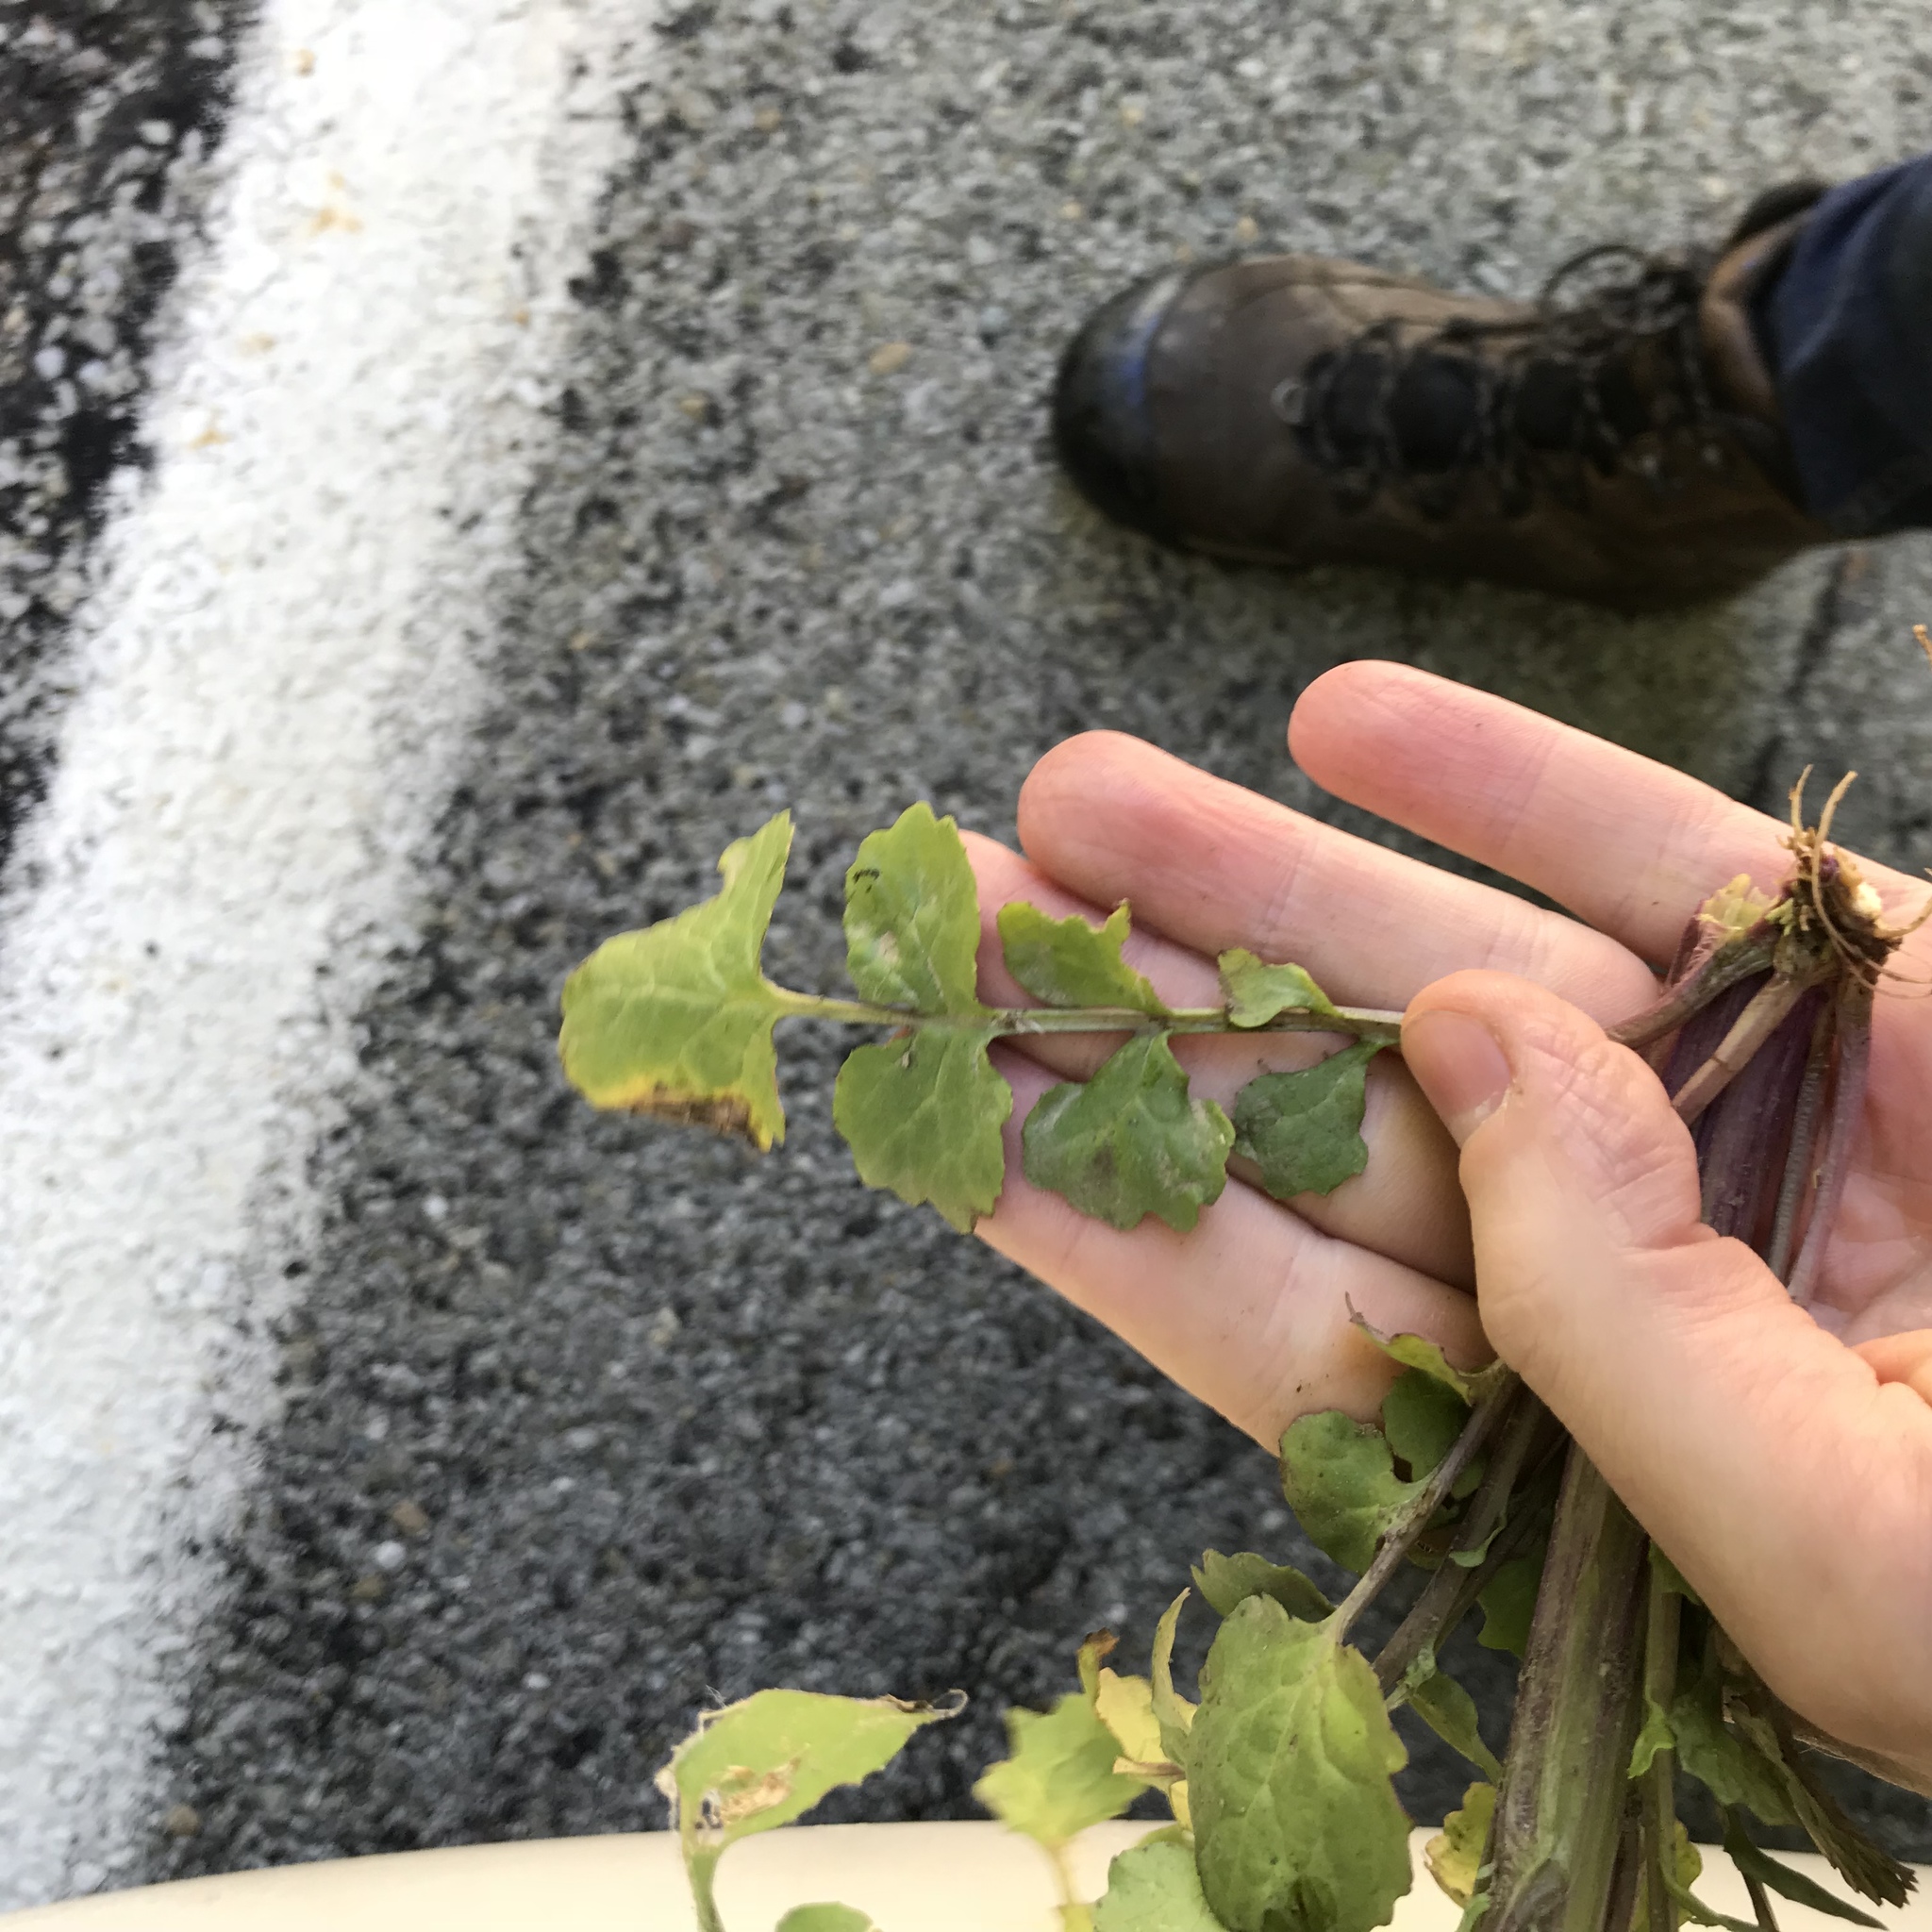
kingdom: Plantae
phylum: Tracheophyta
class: Magnoliopsida
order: Asterales
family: Asteraceae
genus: Packera
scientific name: Packera glabella
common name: Butterweed
